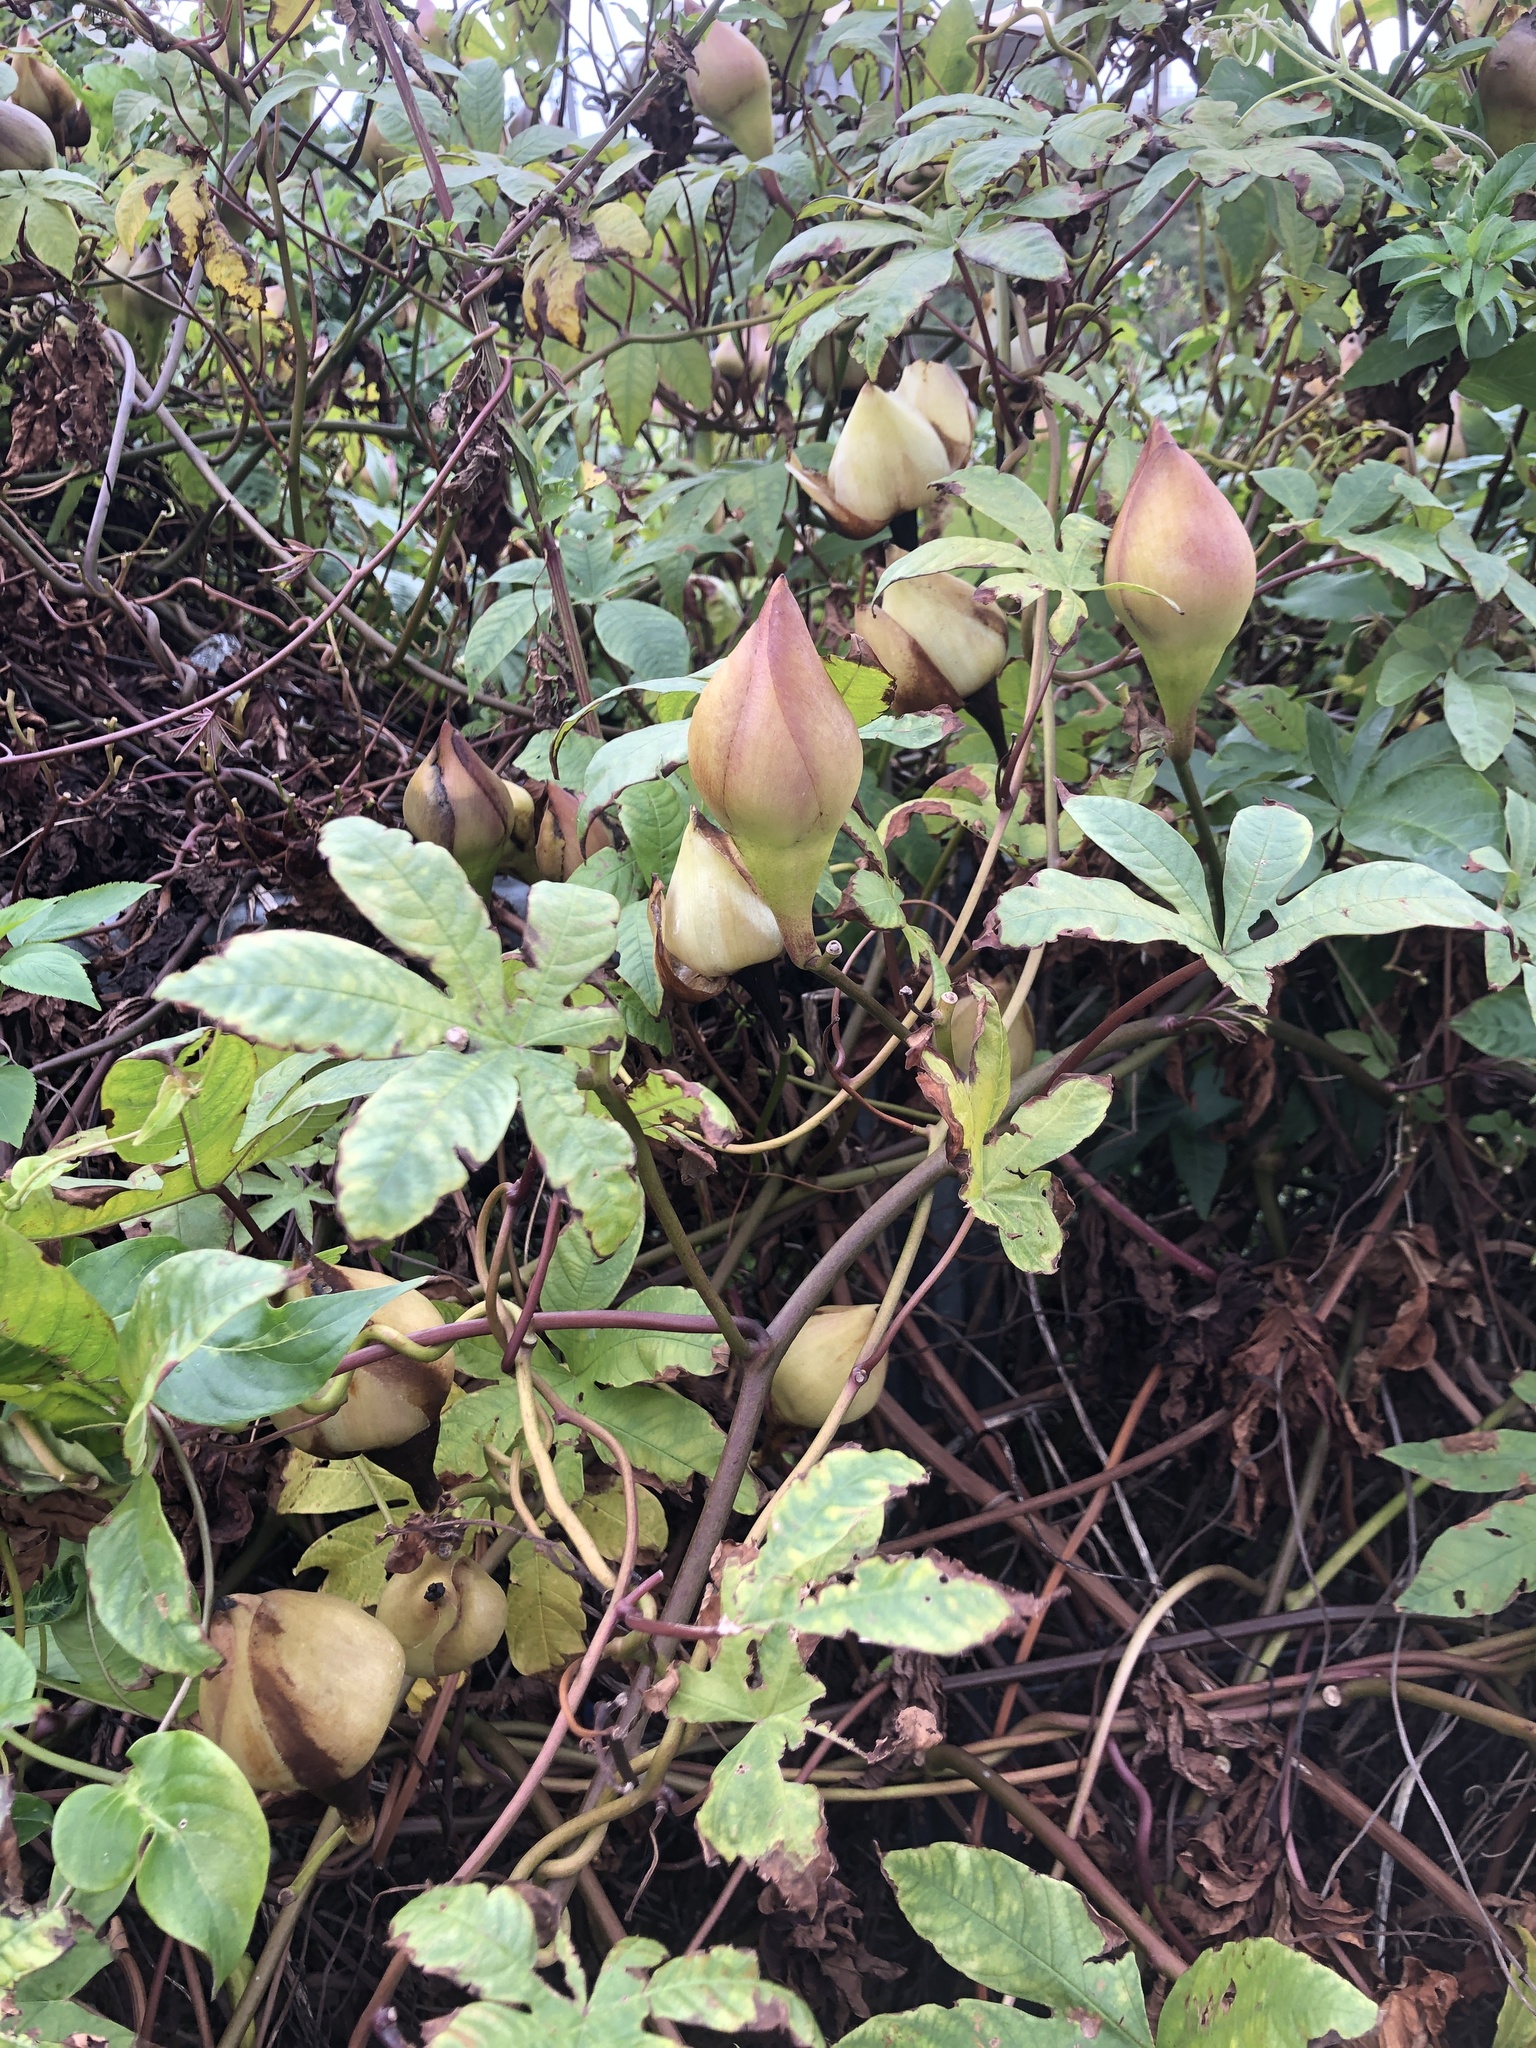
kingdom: Plantae
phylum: Tracheophyta
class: Magnoliopsida
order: Solanales
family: Convolvulaceae
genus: Distimake
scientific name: Distimake tuberosus
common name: Spanish arborvine
